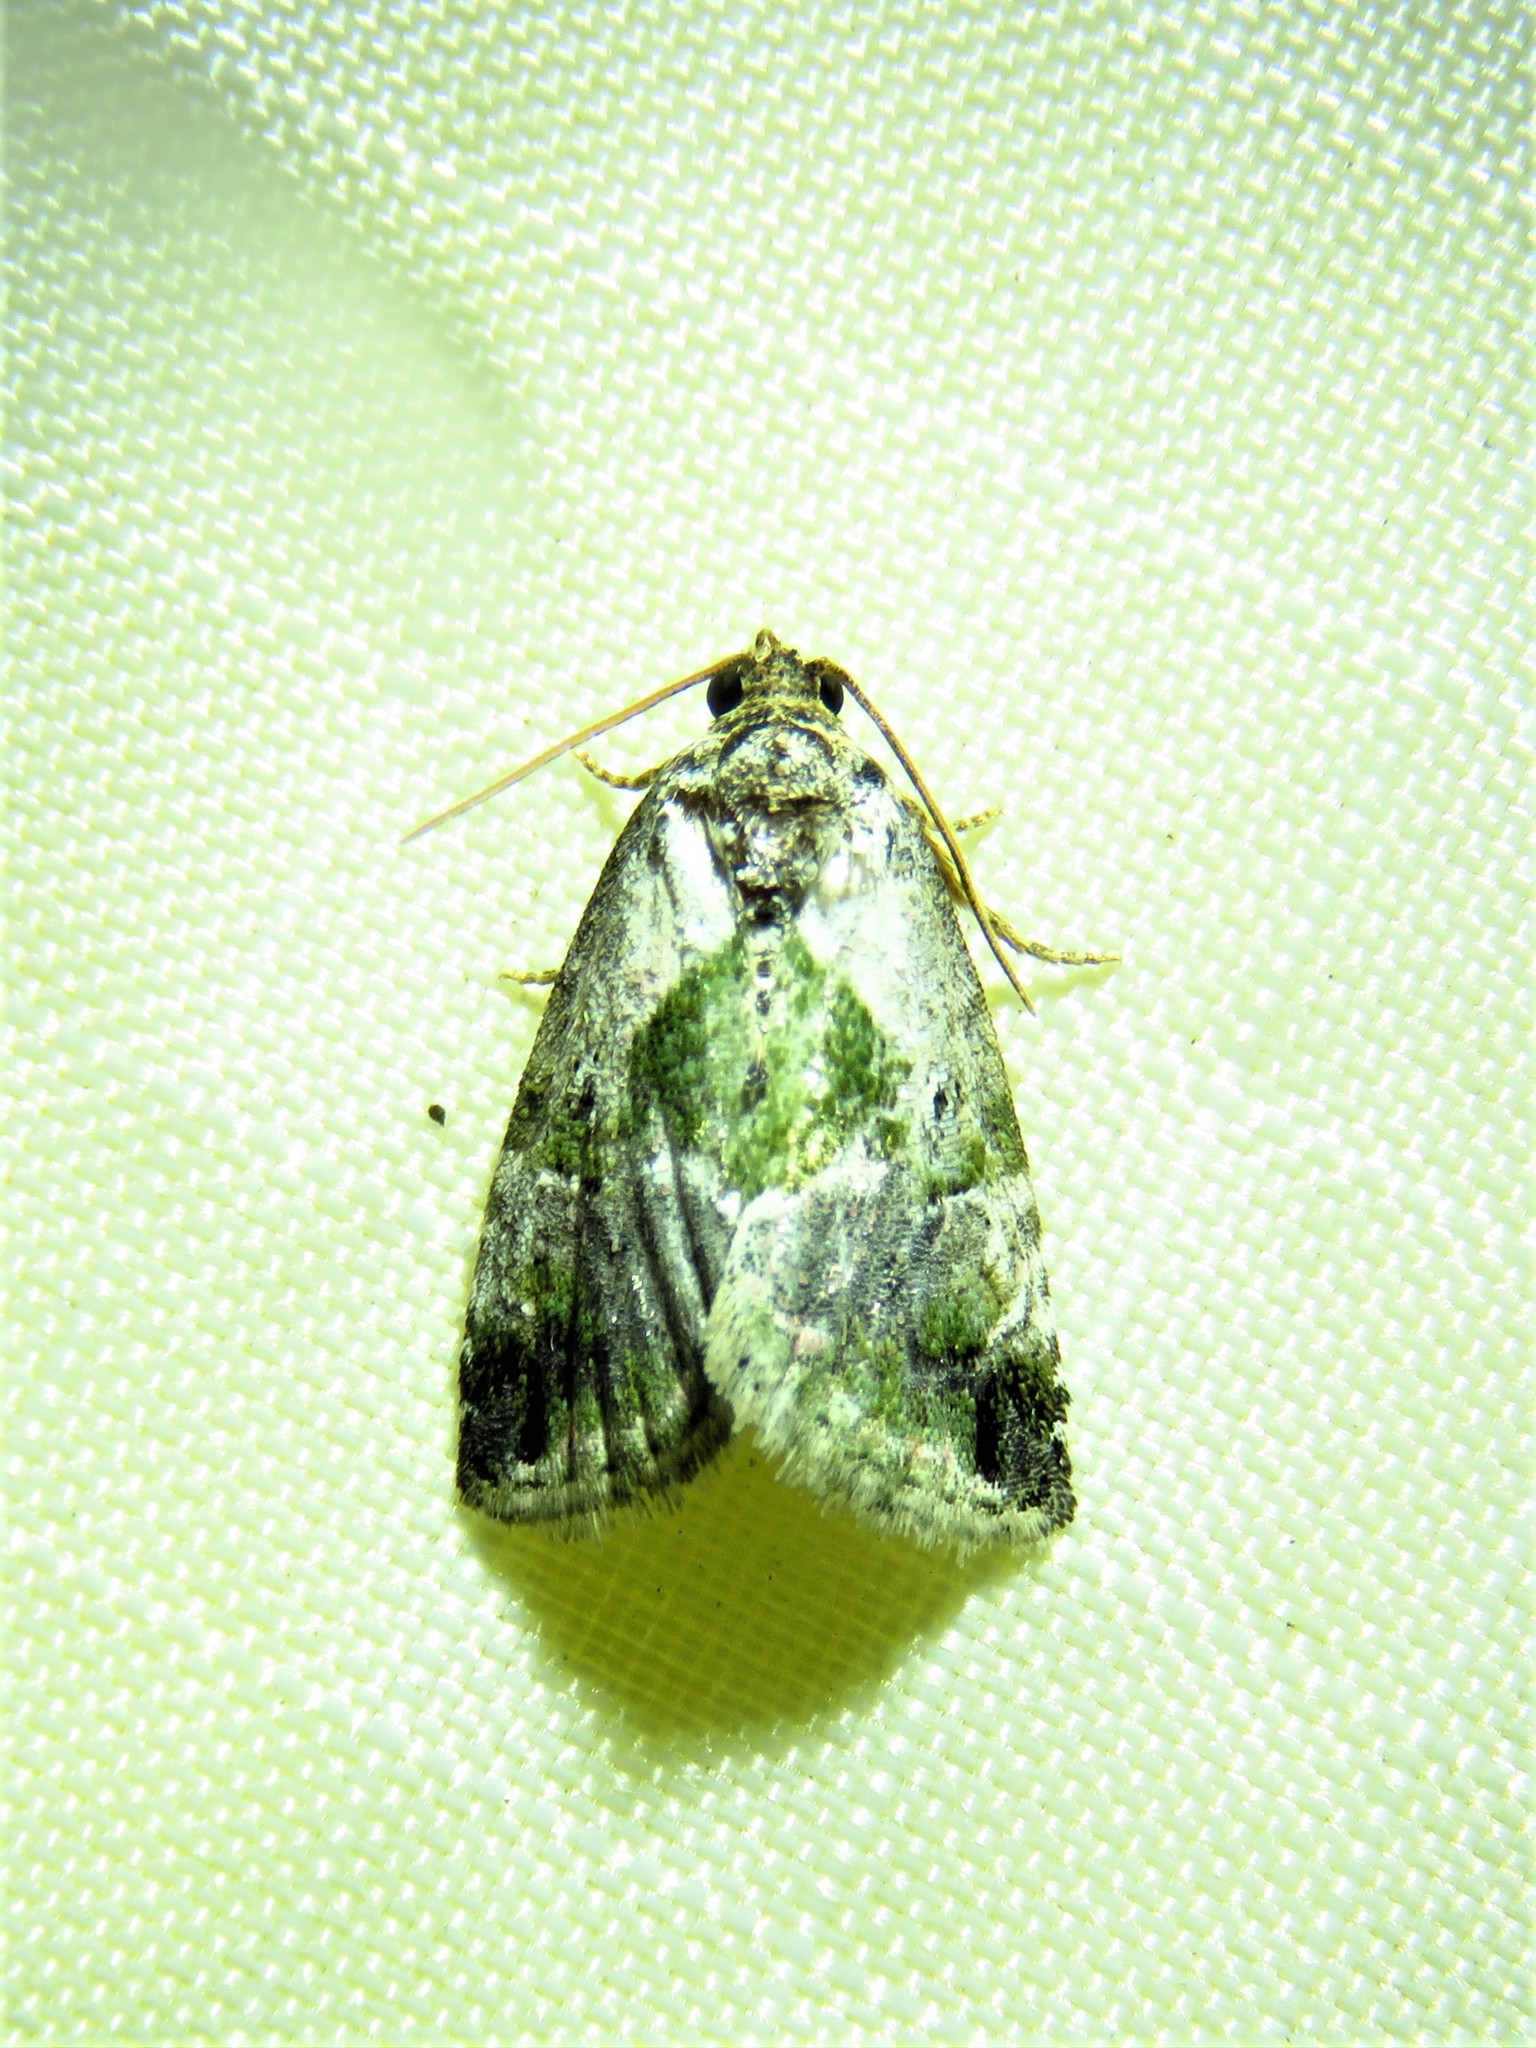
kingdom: Animalia
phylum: Arthropoda
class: Insecta
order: Lepidoptera
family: Noctuidae
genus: Maliattha
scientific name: Maliattha synochitis
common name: Black-dotted glyph
